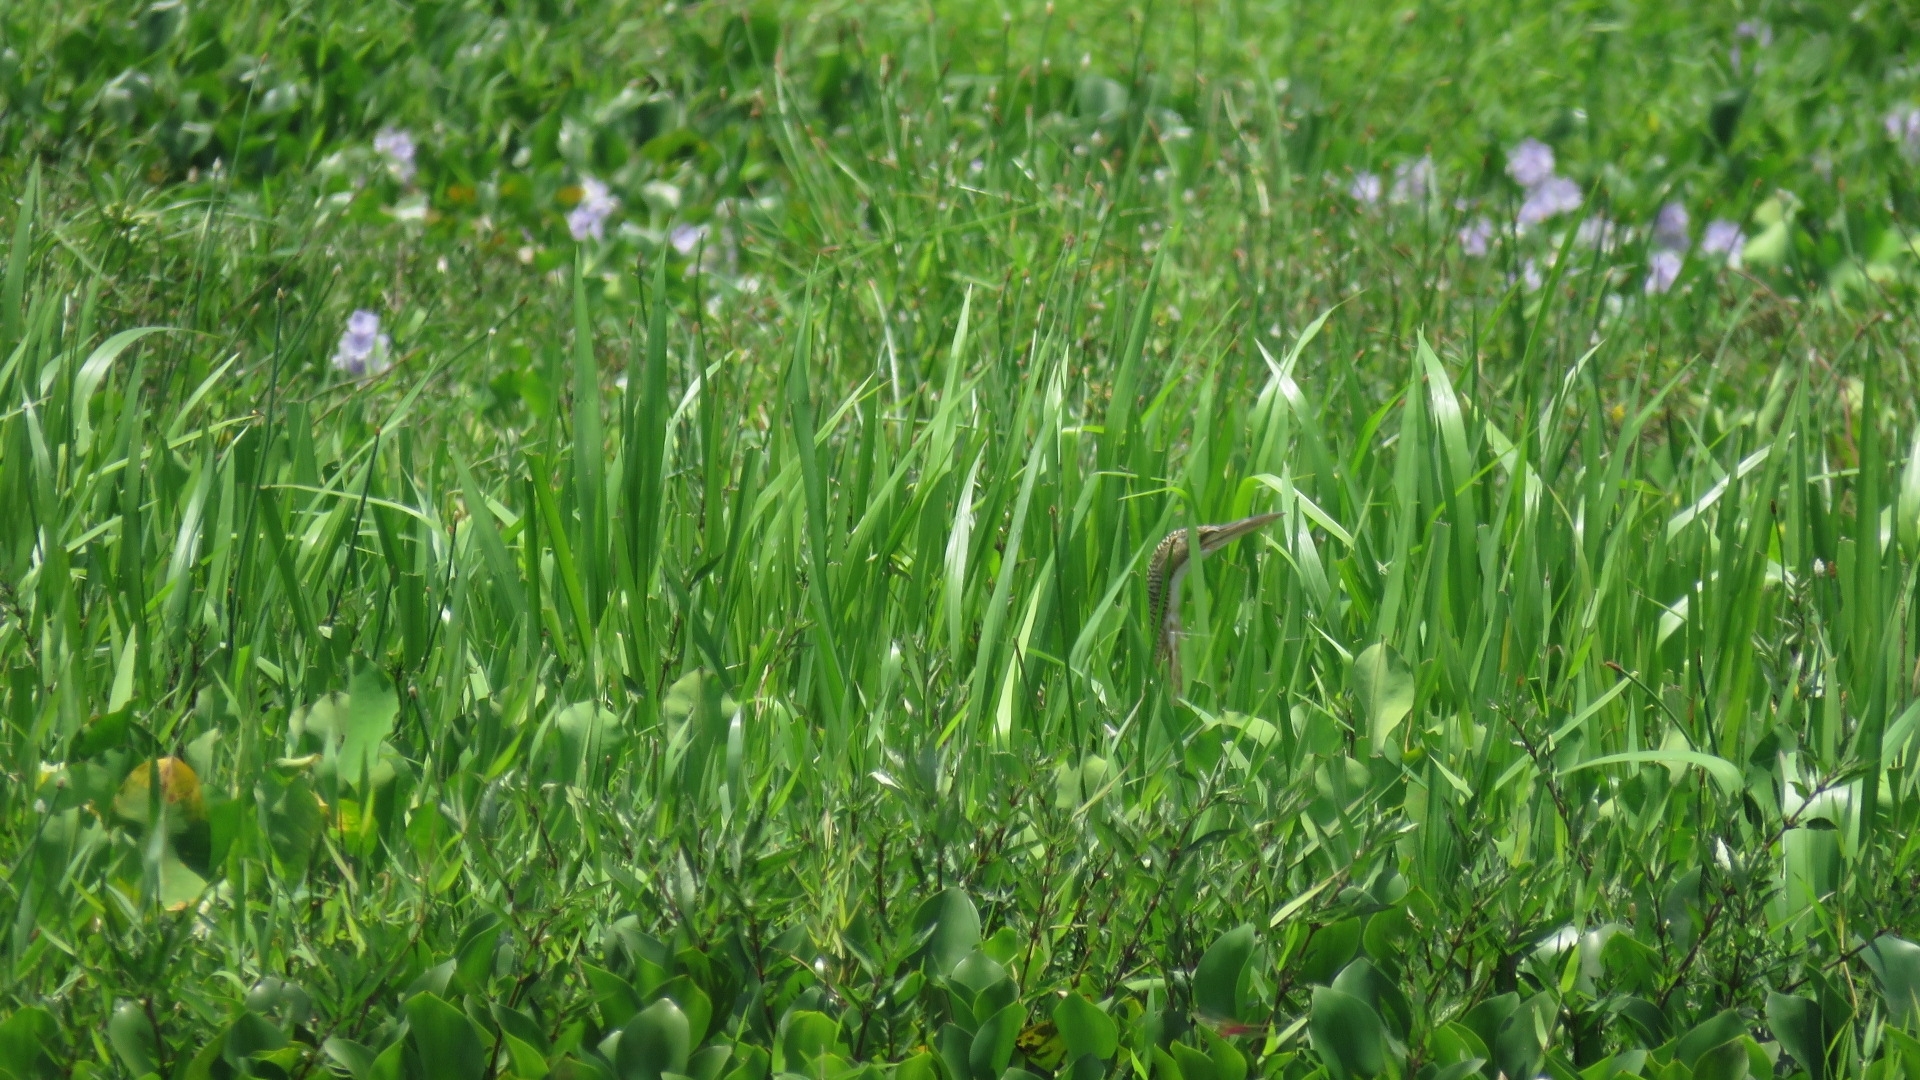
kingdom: Animalia
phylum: Chordata
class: Aves
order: Pelecaniformes
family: Ardeidae
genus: Botaurus
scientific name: Botaurus pinnatus
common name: Pinnated bittern
